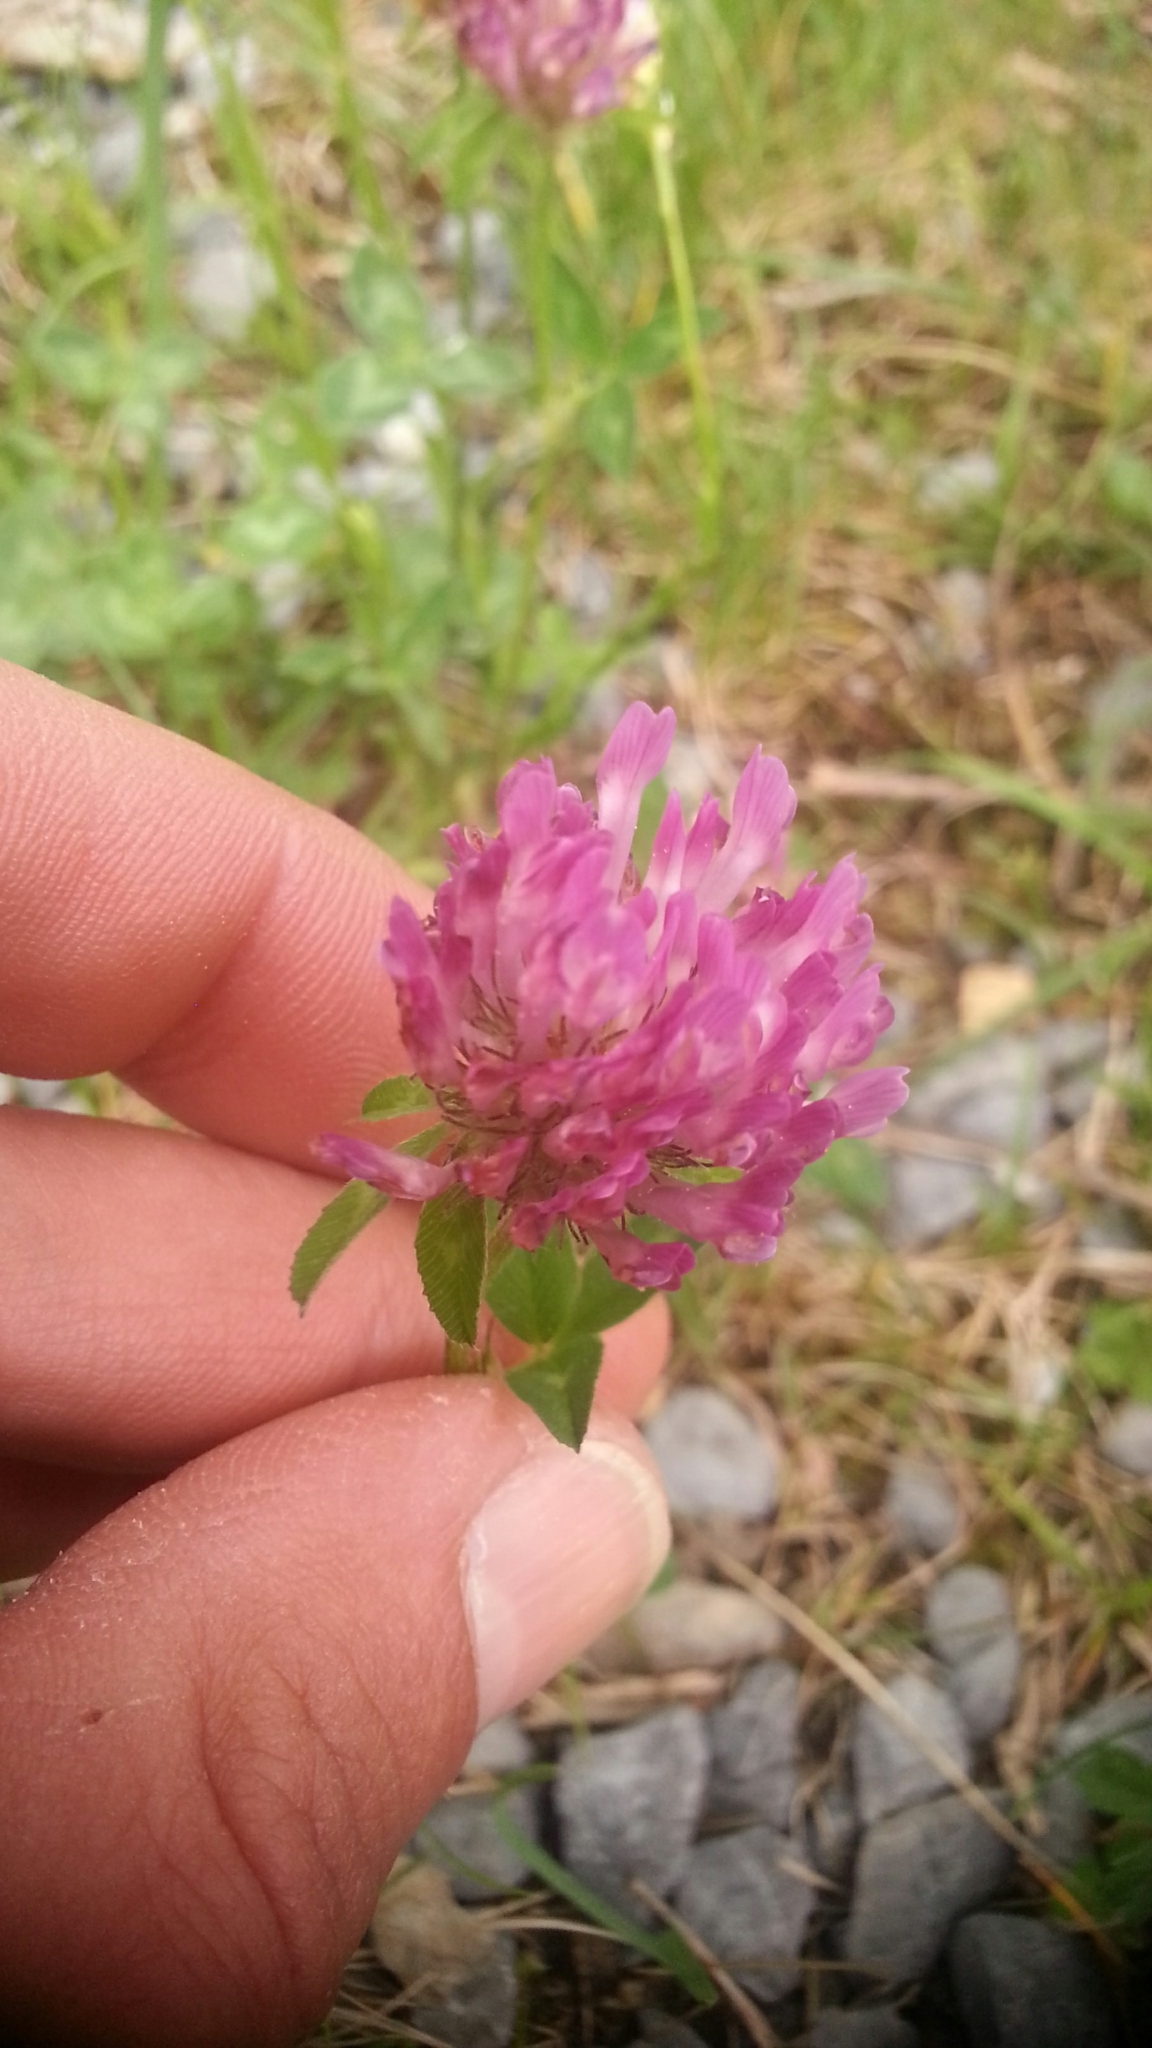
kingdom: Plantae
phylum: Tracheophyta
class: Magnoliopsida
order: Fabales
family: Fabaceae
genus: Trifolium
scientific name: Trifolium pratense
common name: Red clover
